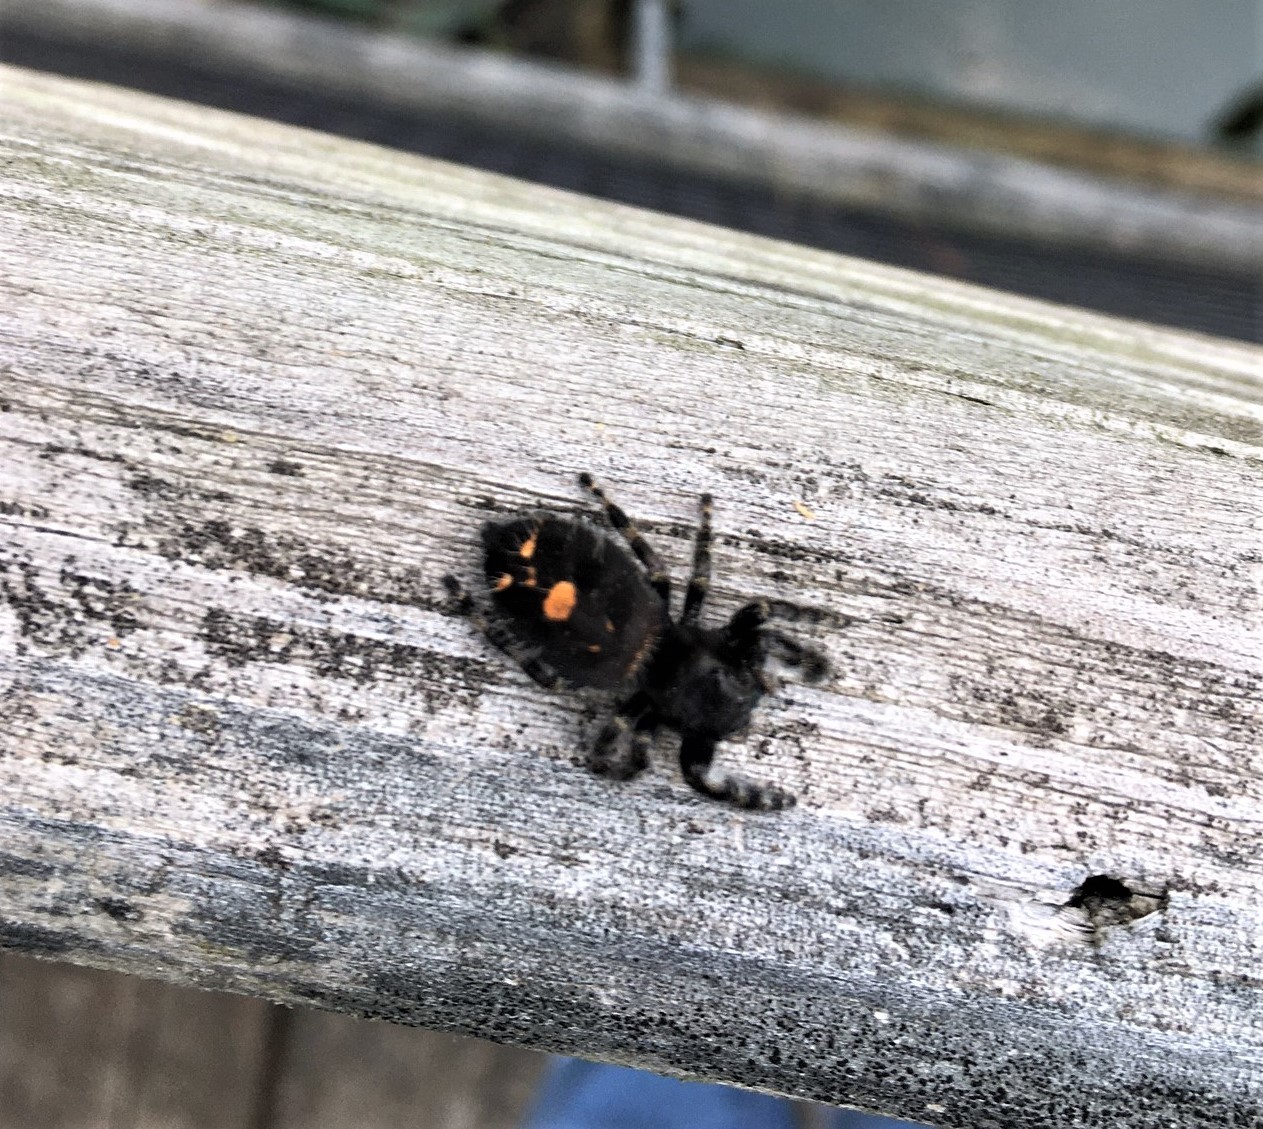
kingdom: Animalia
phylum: Arthropoda
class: Arachnida
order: Araneae
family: Salticidae
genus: Phidippus
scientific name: Phidippus audax
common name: Bold jumper
